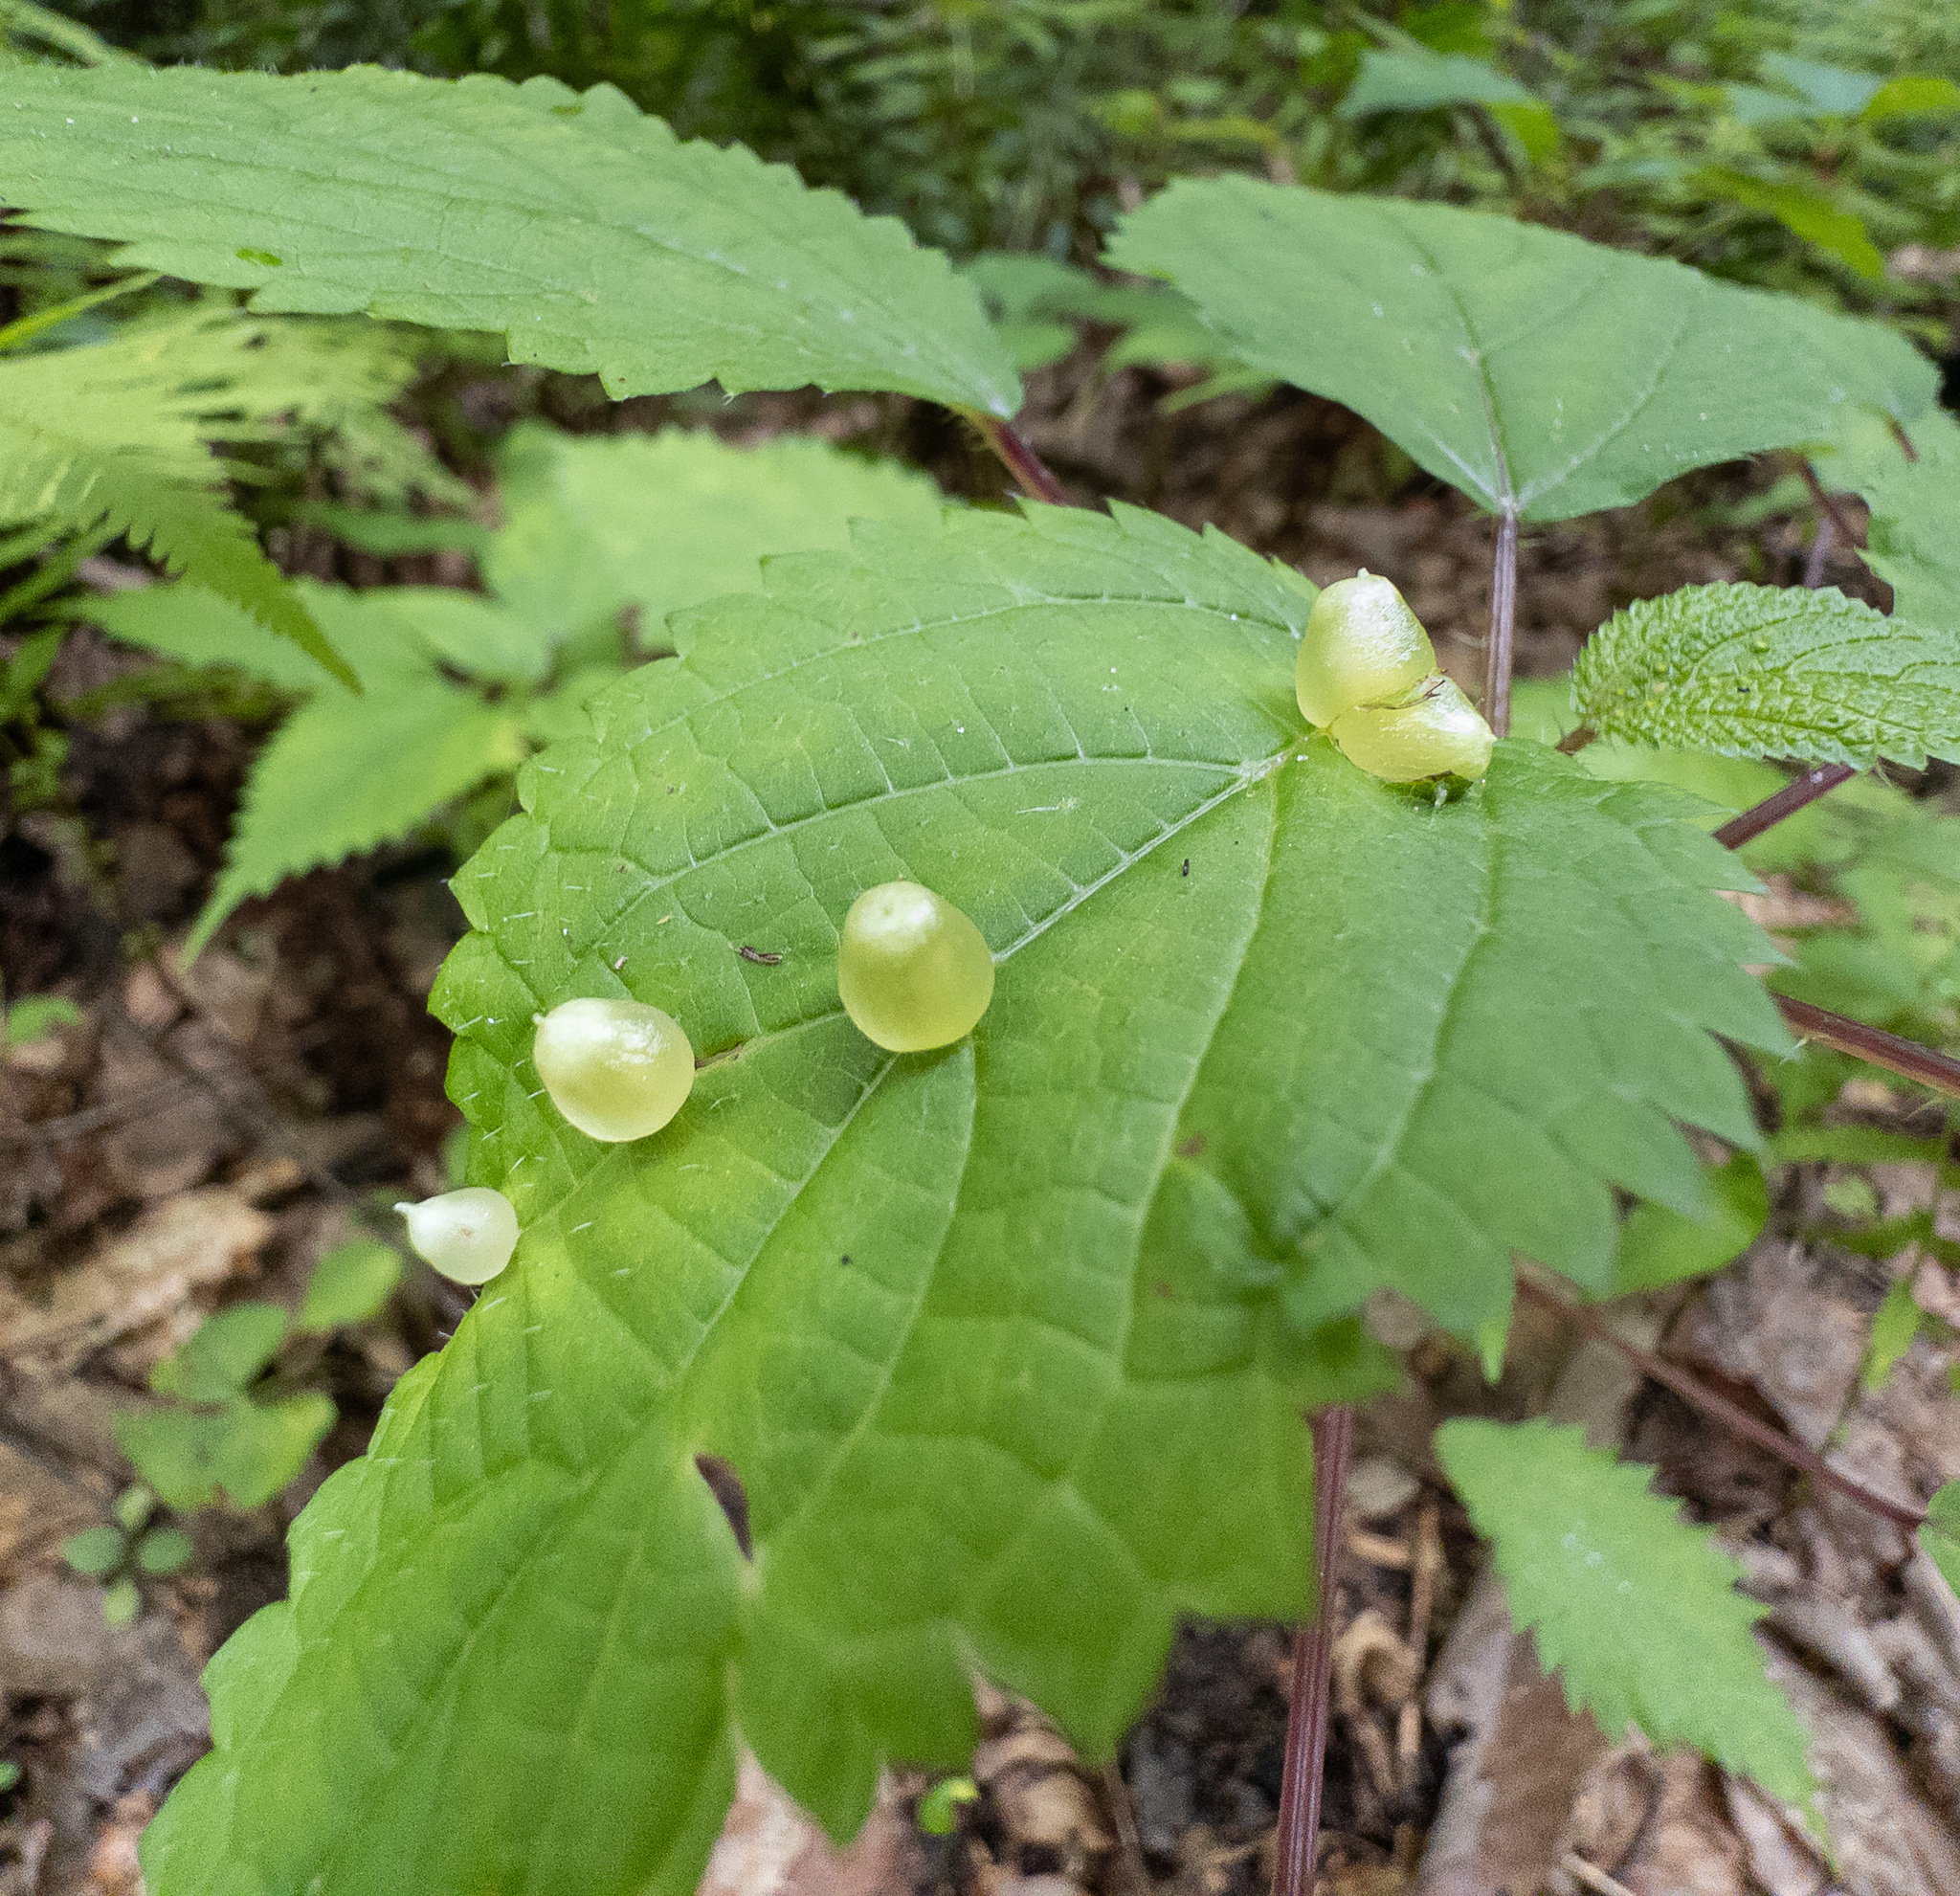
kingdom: Animalia
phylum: Arthropoda
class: Insecta
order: Diptera
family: Cecidomyiidae
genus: Dasineura
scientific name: Dasineura investita
